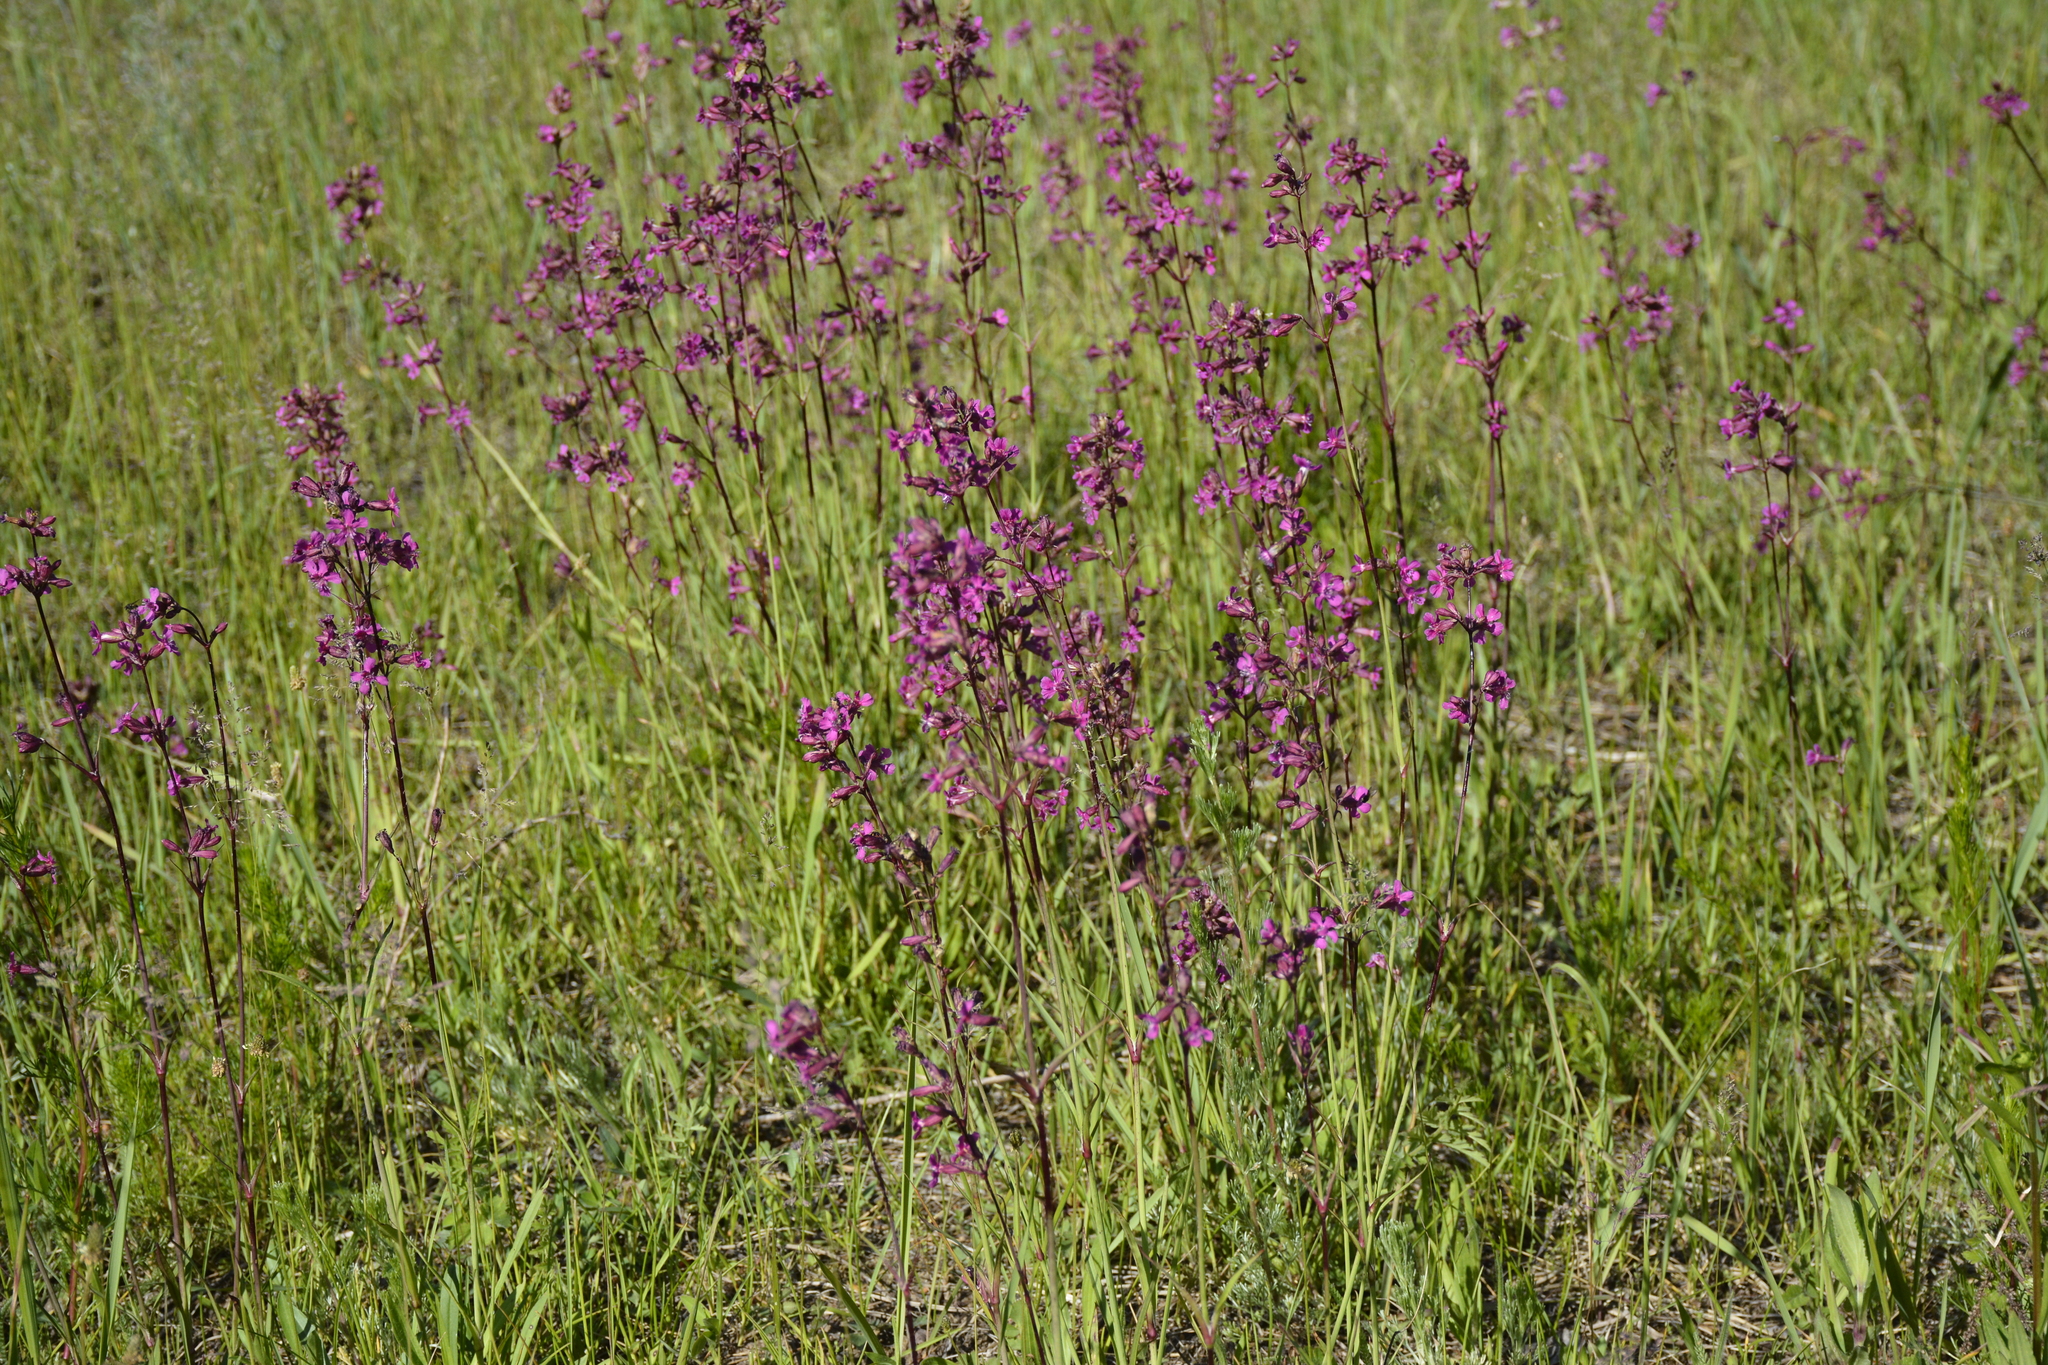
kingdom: Plantae
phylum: Tracheophyta
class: Magnoliopsida
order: Caryophyllales
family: Caryophyllaceae
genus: Viscaria
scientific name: Viscaria vulgaris
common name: Clammy campion
